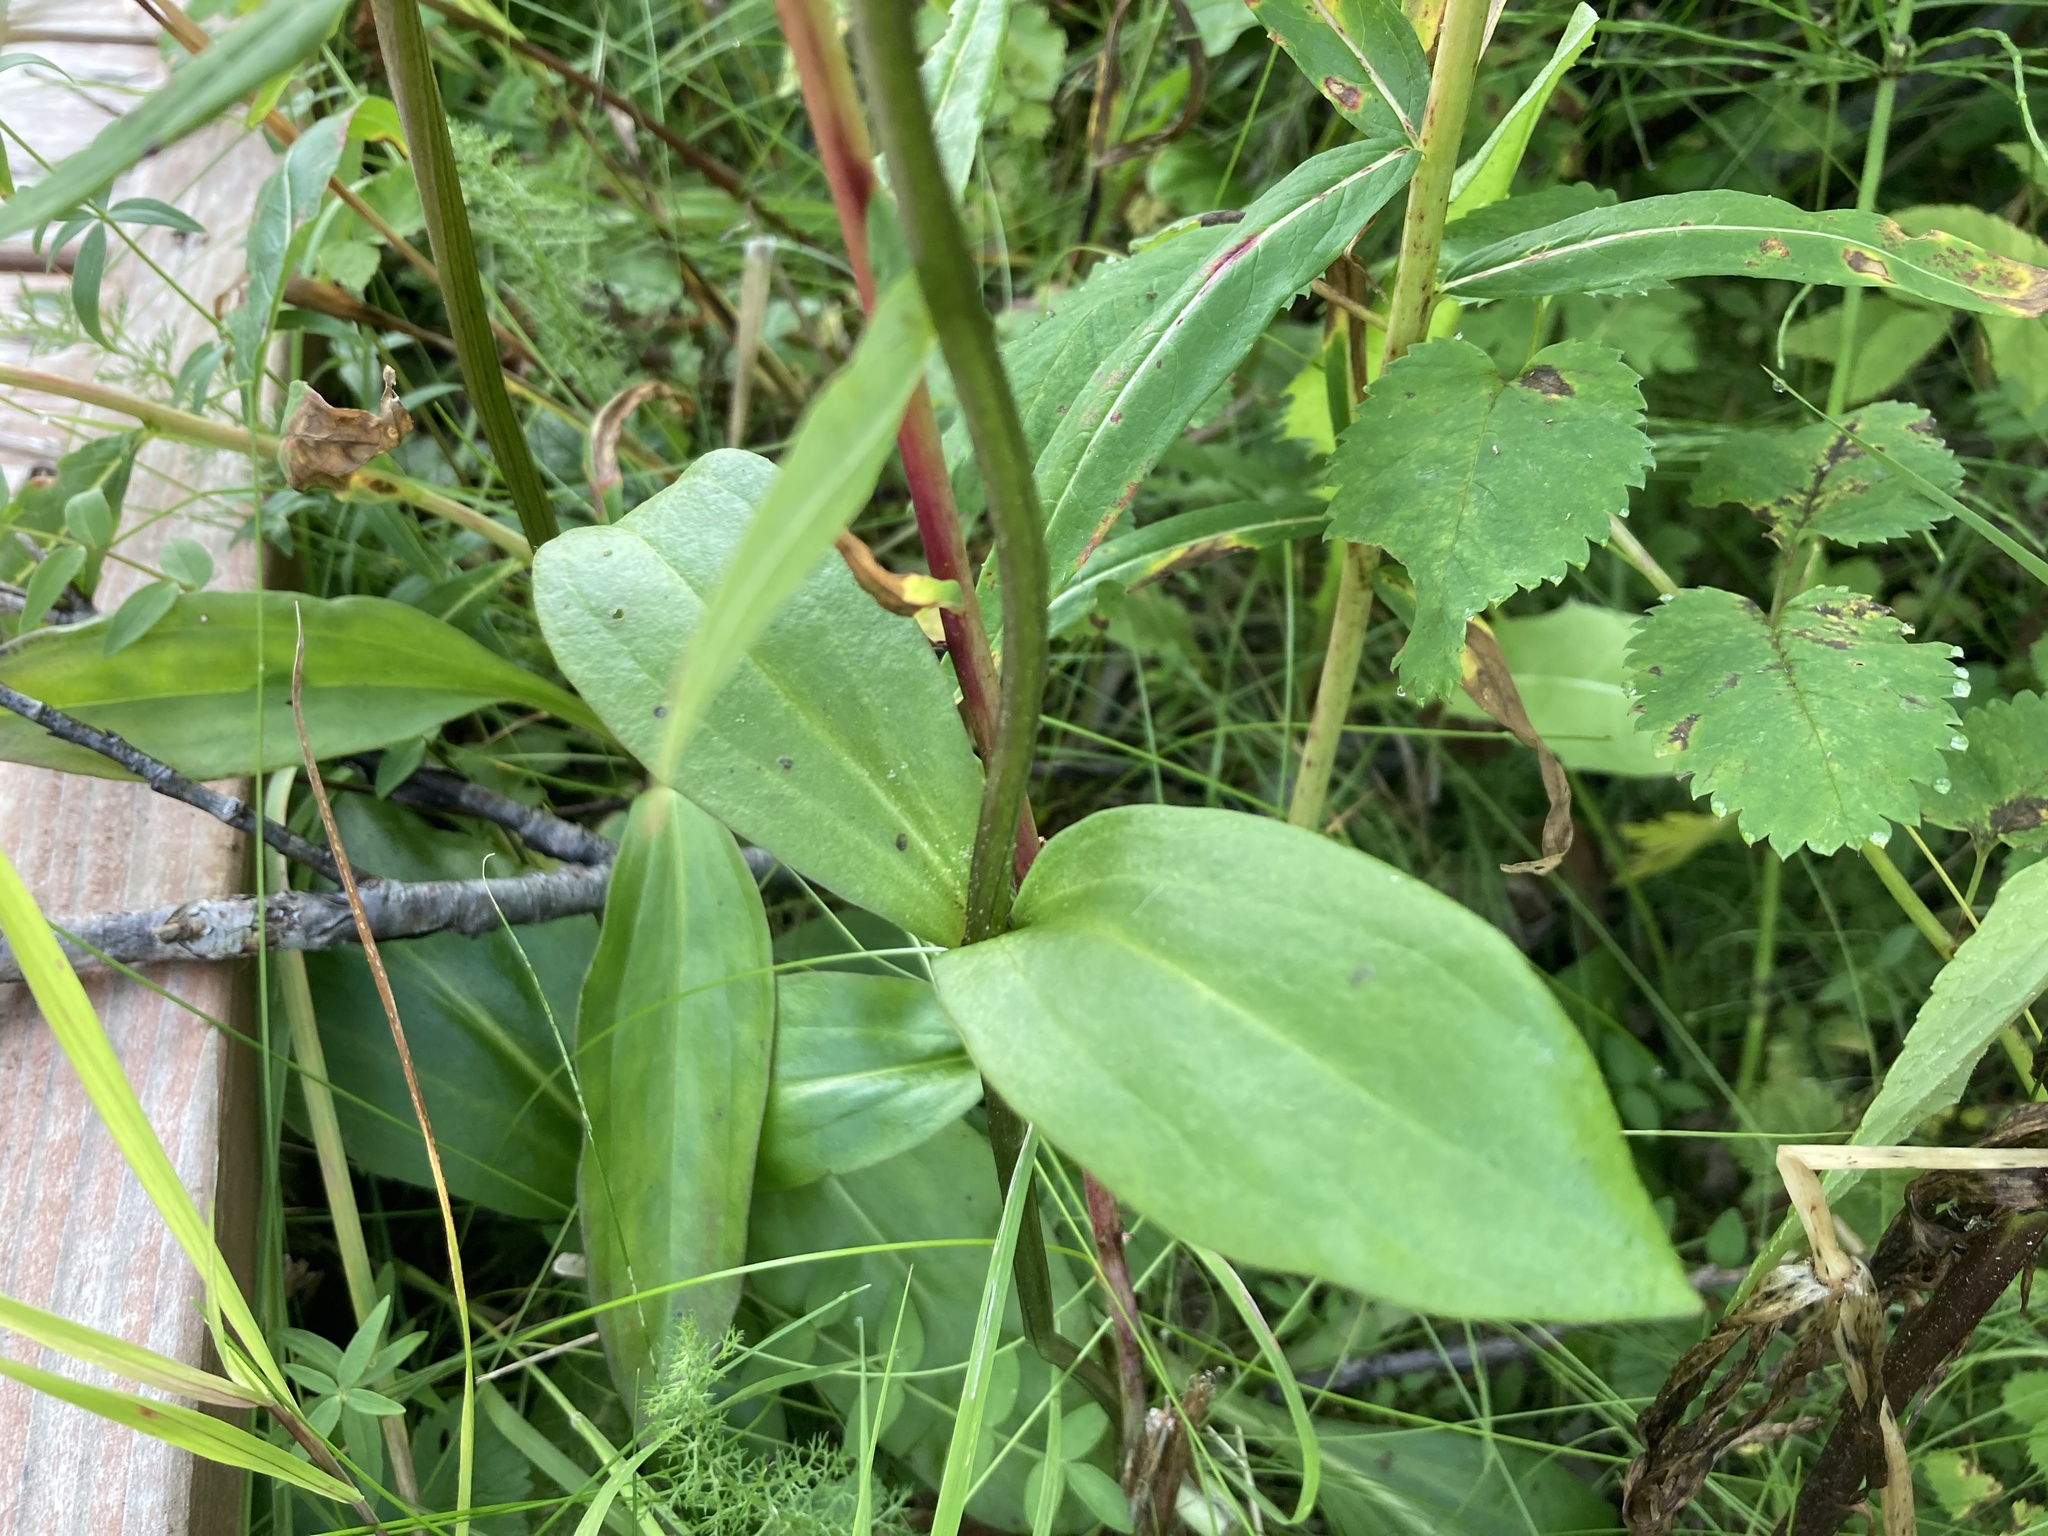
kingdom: Plantae
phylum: Tracheophyta
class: Magnoliopsida
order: Rosales
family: Rosaceae
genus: Sanguisorba
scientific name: Sanguisorba stipulata
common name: Sitka burnet
